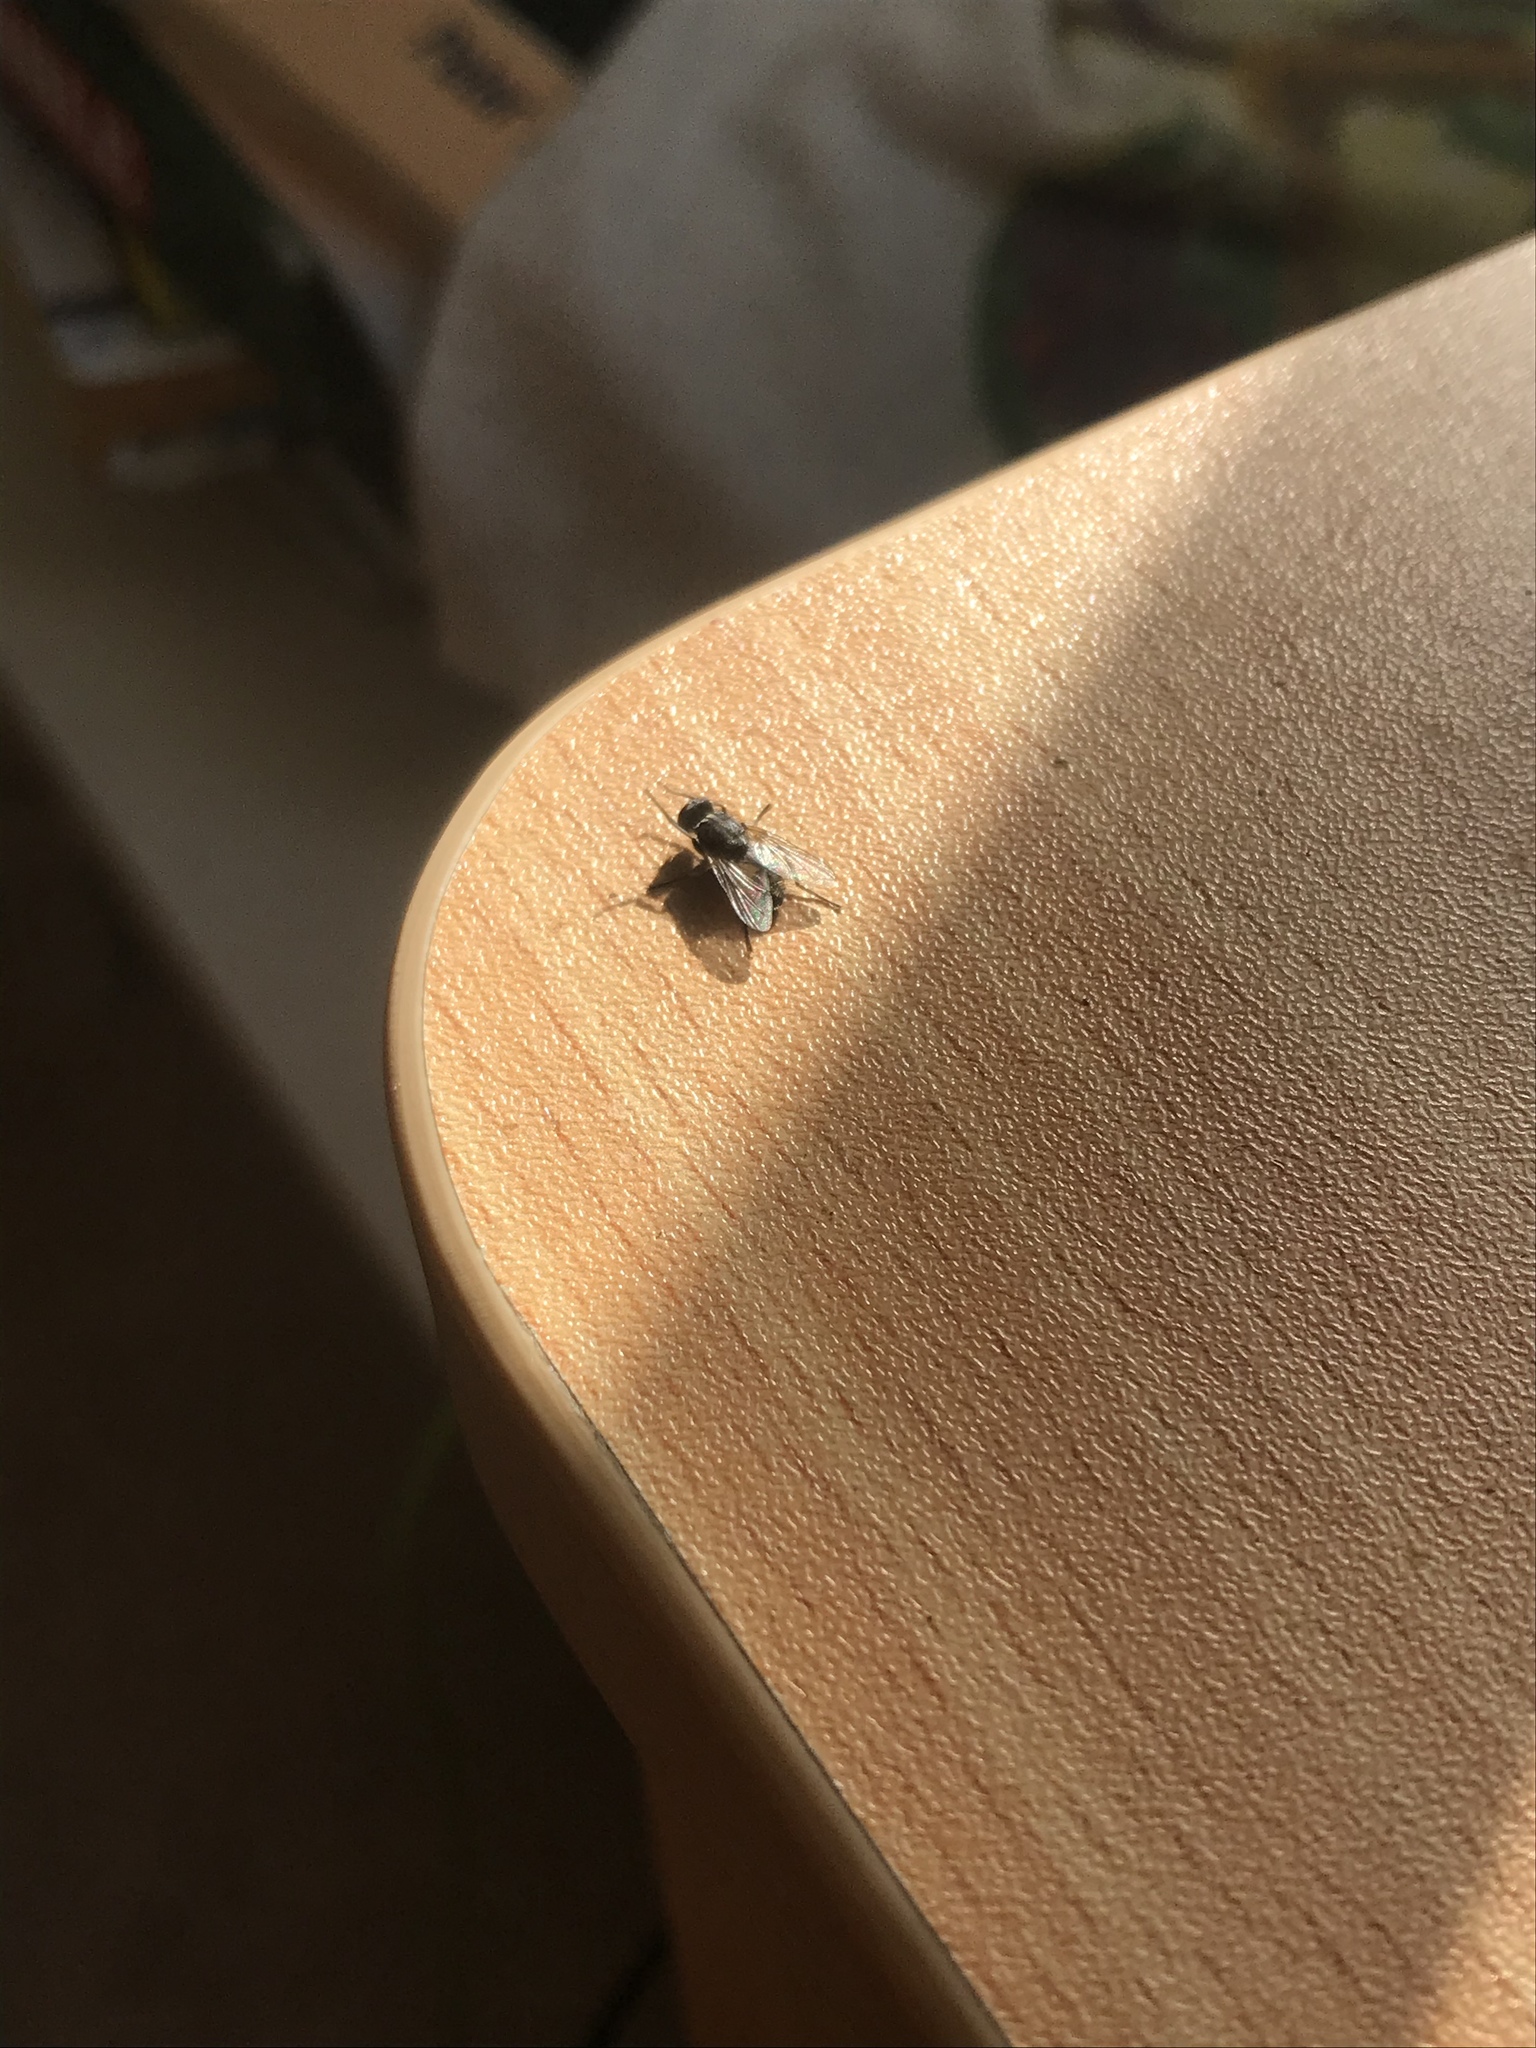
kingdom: Animalia
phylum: Arthropoda
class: Insecta
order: Diptera
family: Muscidae
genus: Musca
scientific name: Musca domestica
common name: House fly
